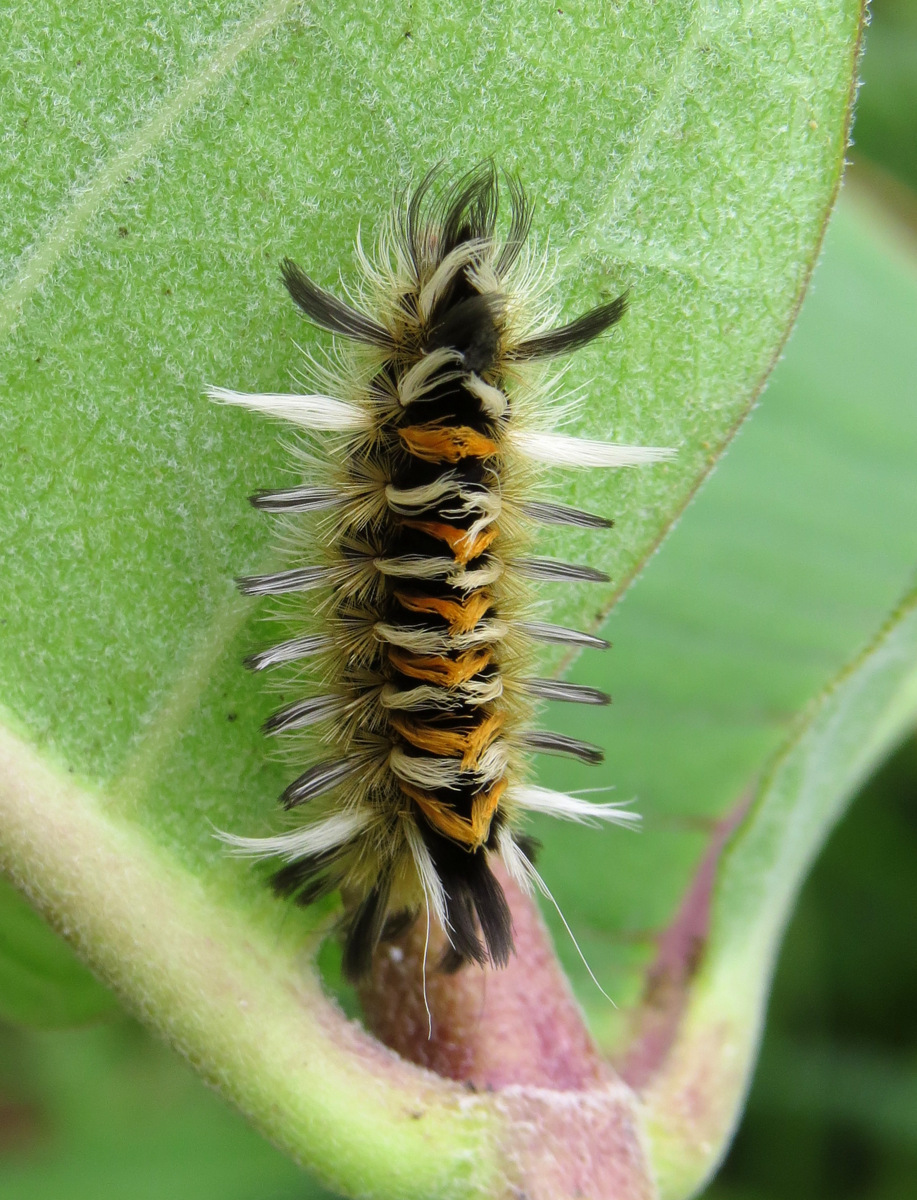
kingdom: Animalia
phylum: Arthropoda
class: Insecta
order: Lepidoptera
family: Erebidae
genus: Euchaetes
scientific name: Euchaetes egle
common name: Milkweed tussock moth
